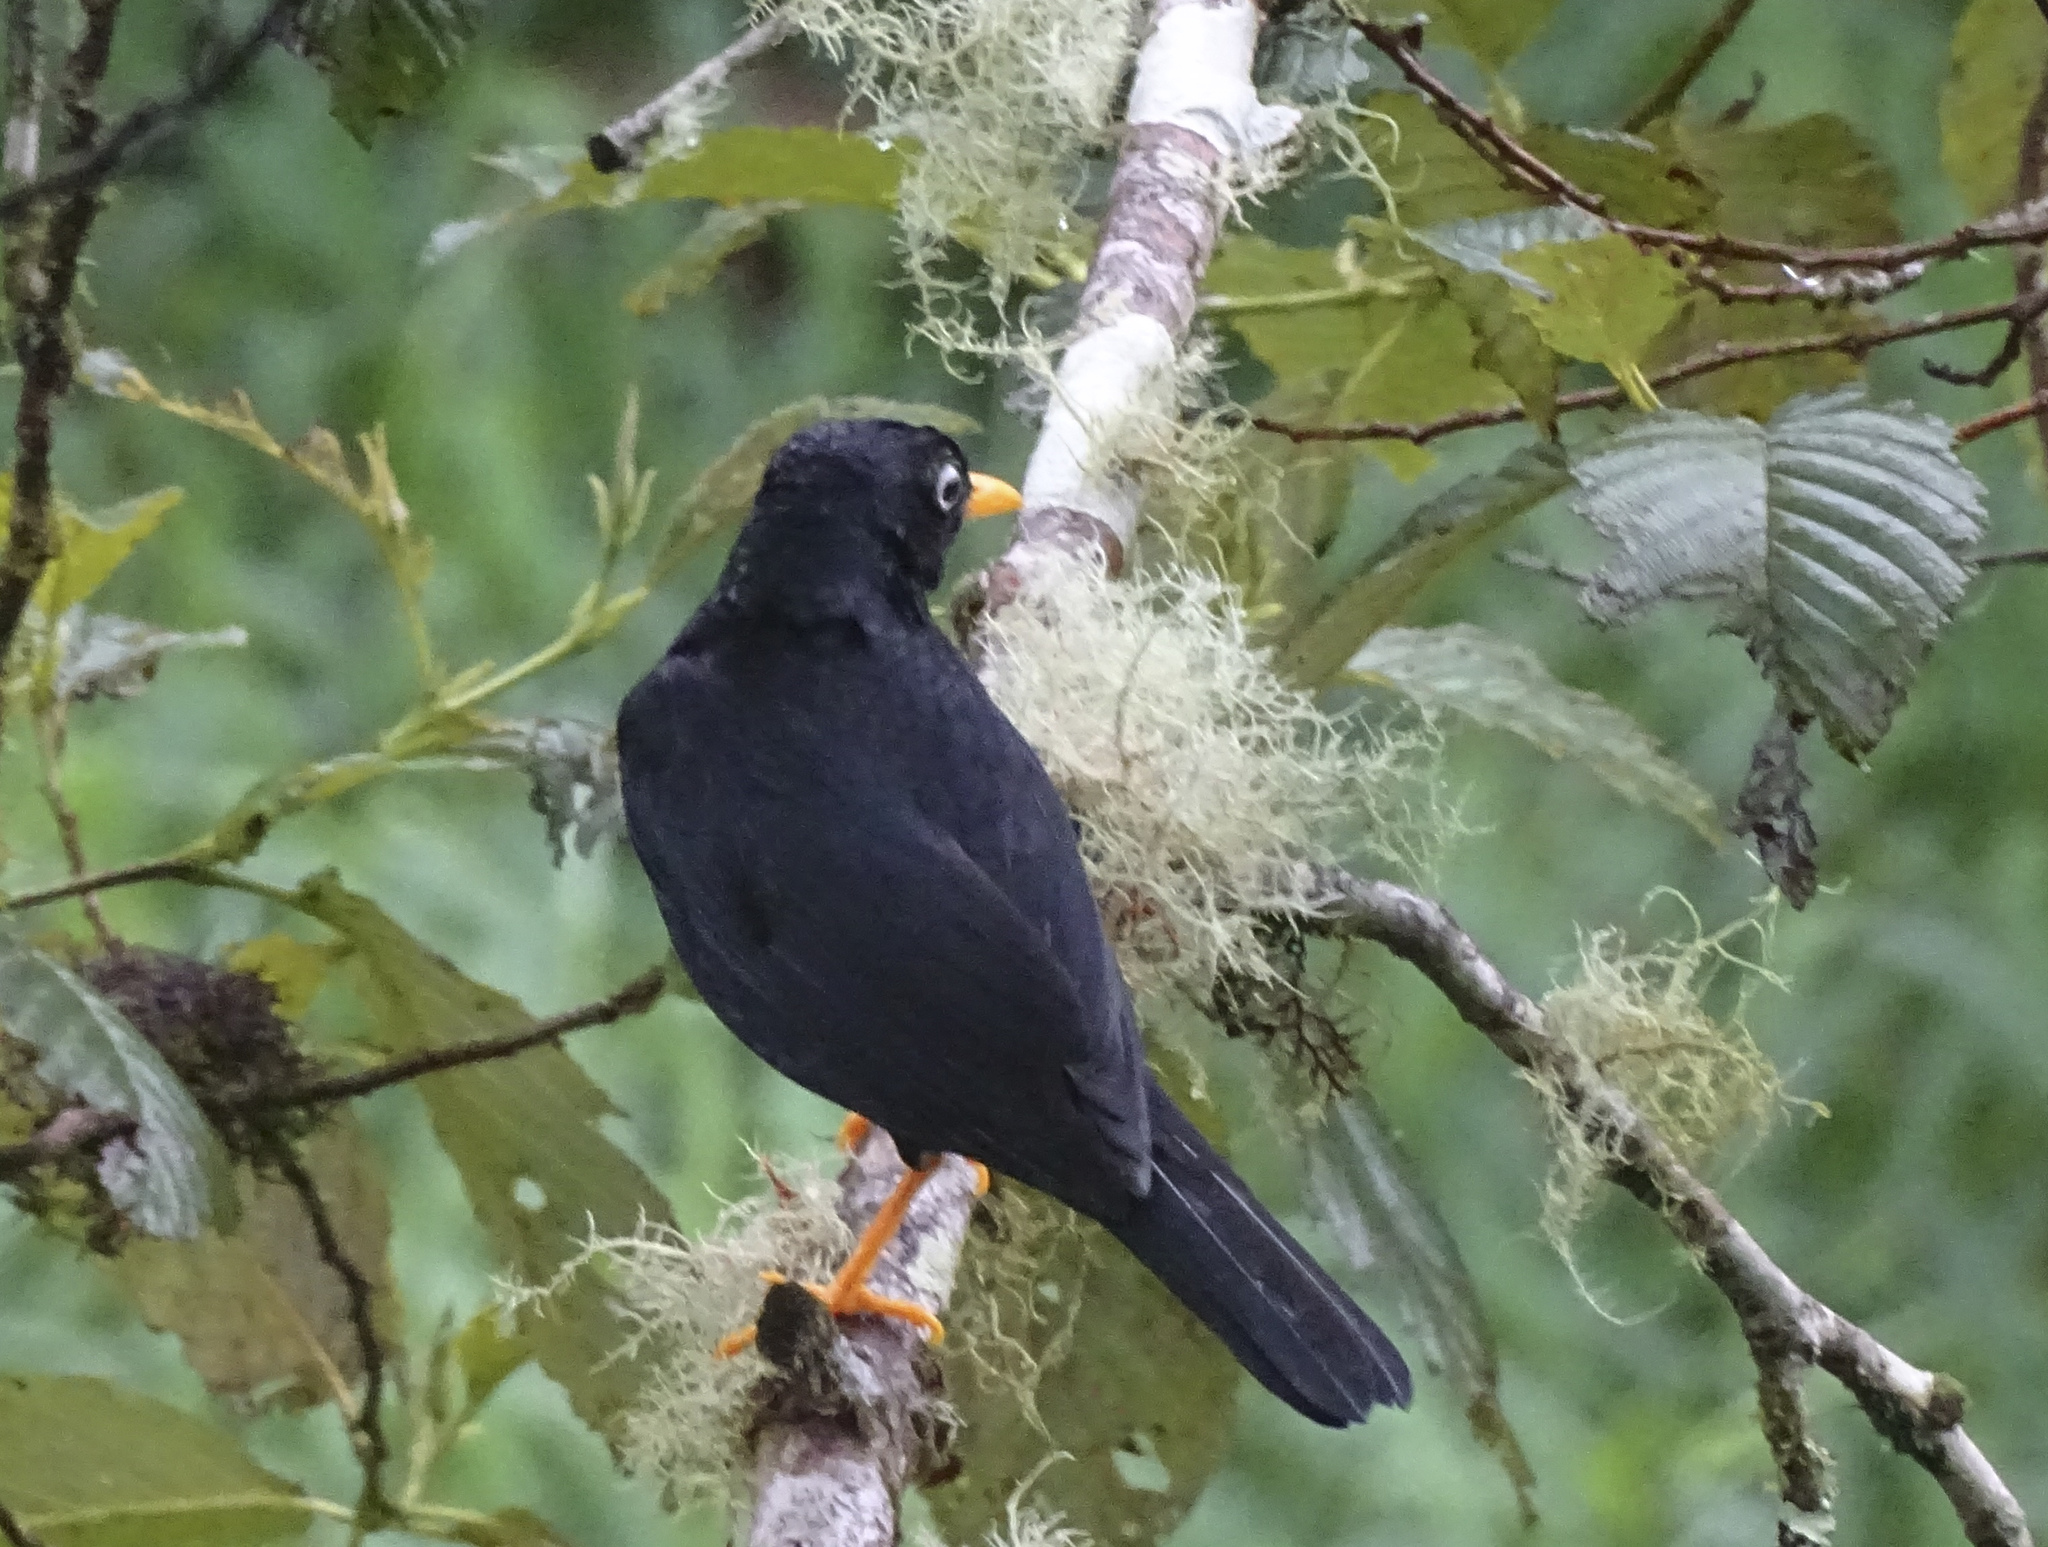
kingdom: Animalia
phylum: Chordata
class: Aves
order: Passeriformes
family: Turdidae
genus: Turdus
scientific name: Turdus leucops
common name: Pale-eyed thrush
